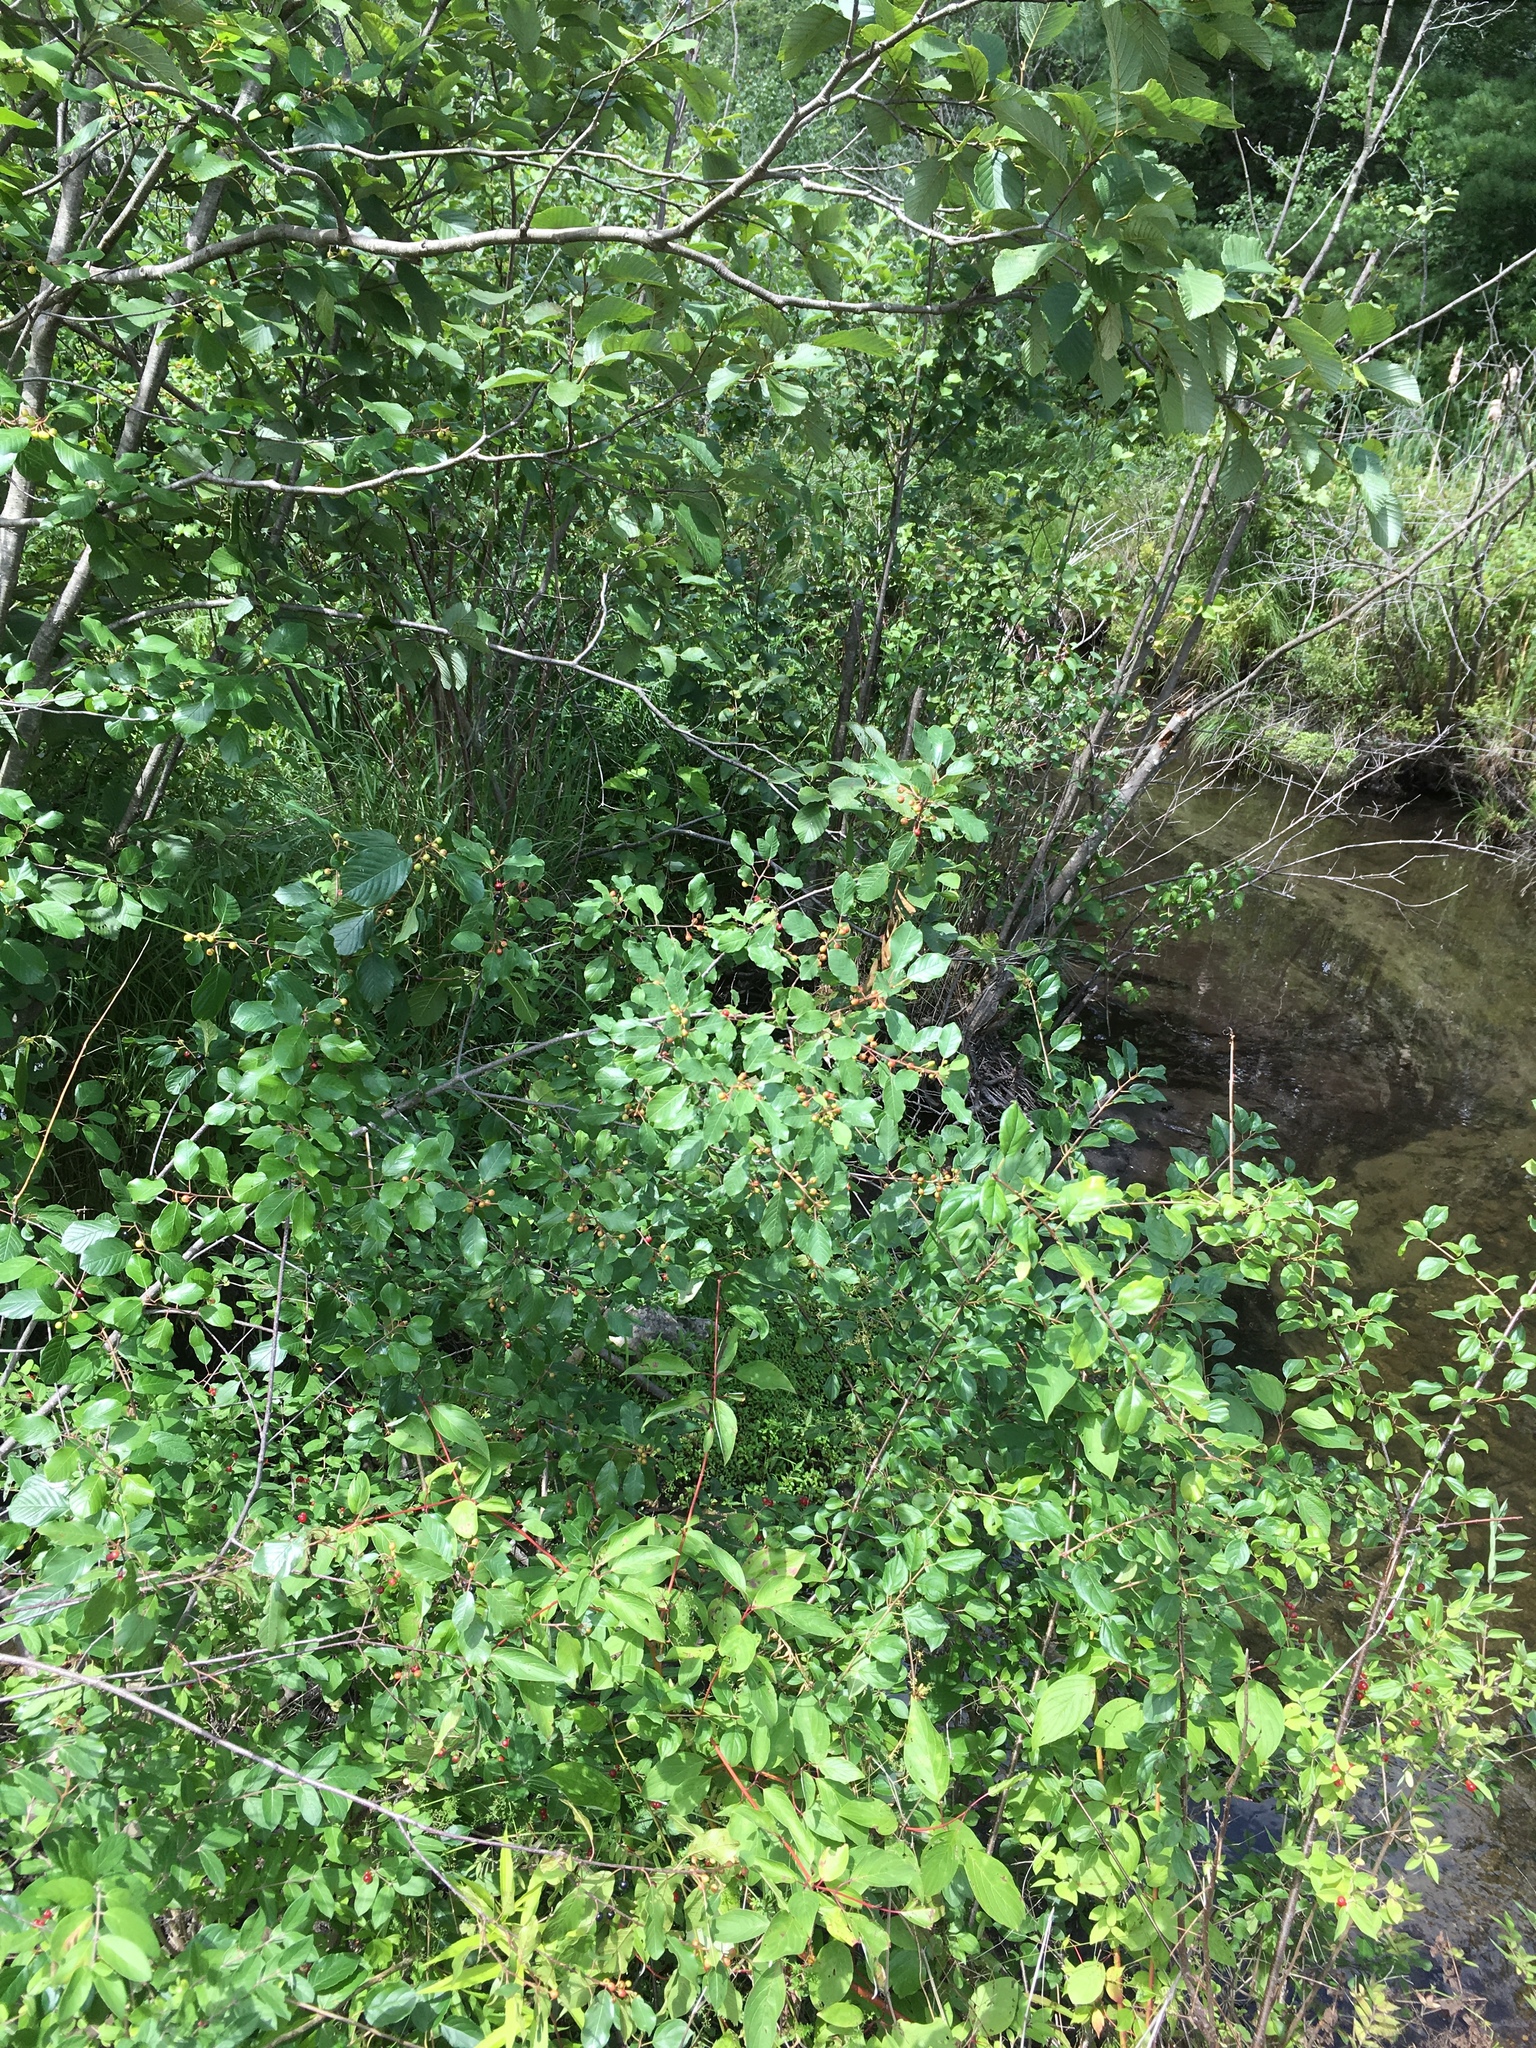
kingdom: Plantae
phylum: Tracheophyta
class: Magnoliopsida
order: Rosales
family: Rhamnaceae
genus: Frangula
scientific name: Frangula alnus
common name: Alder buckthorn
